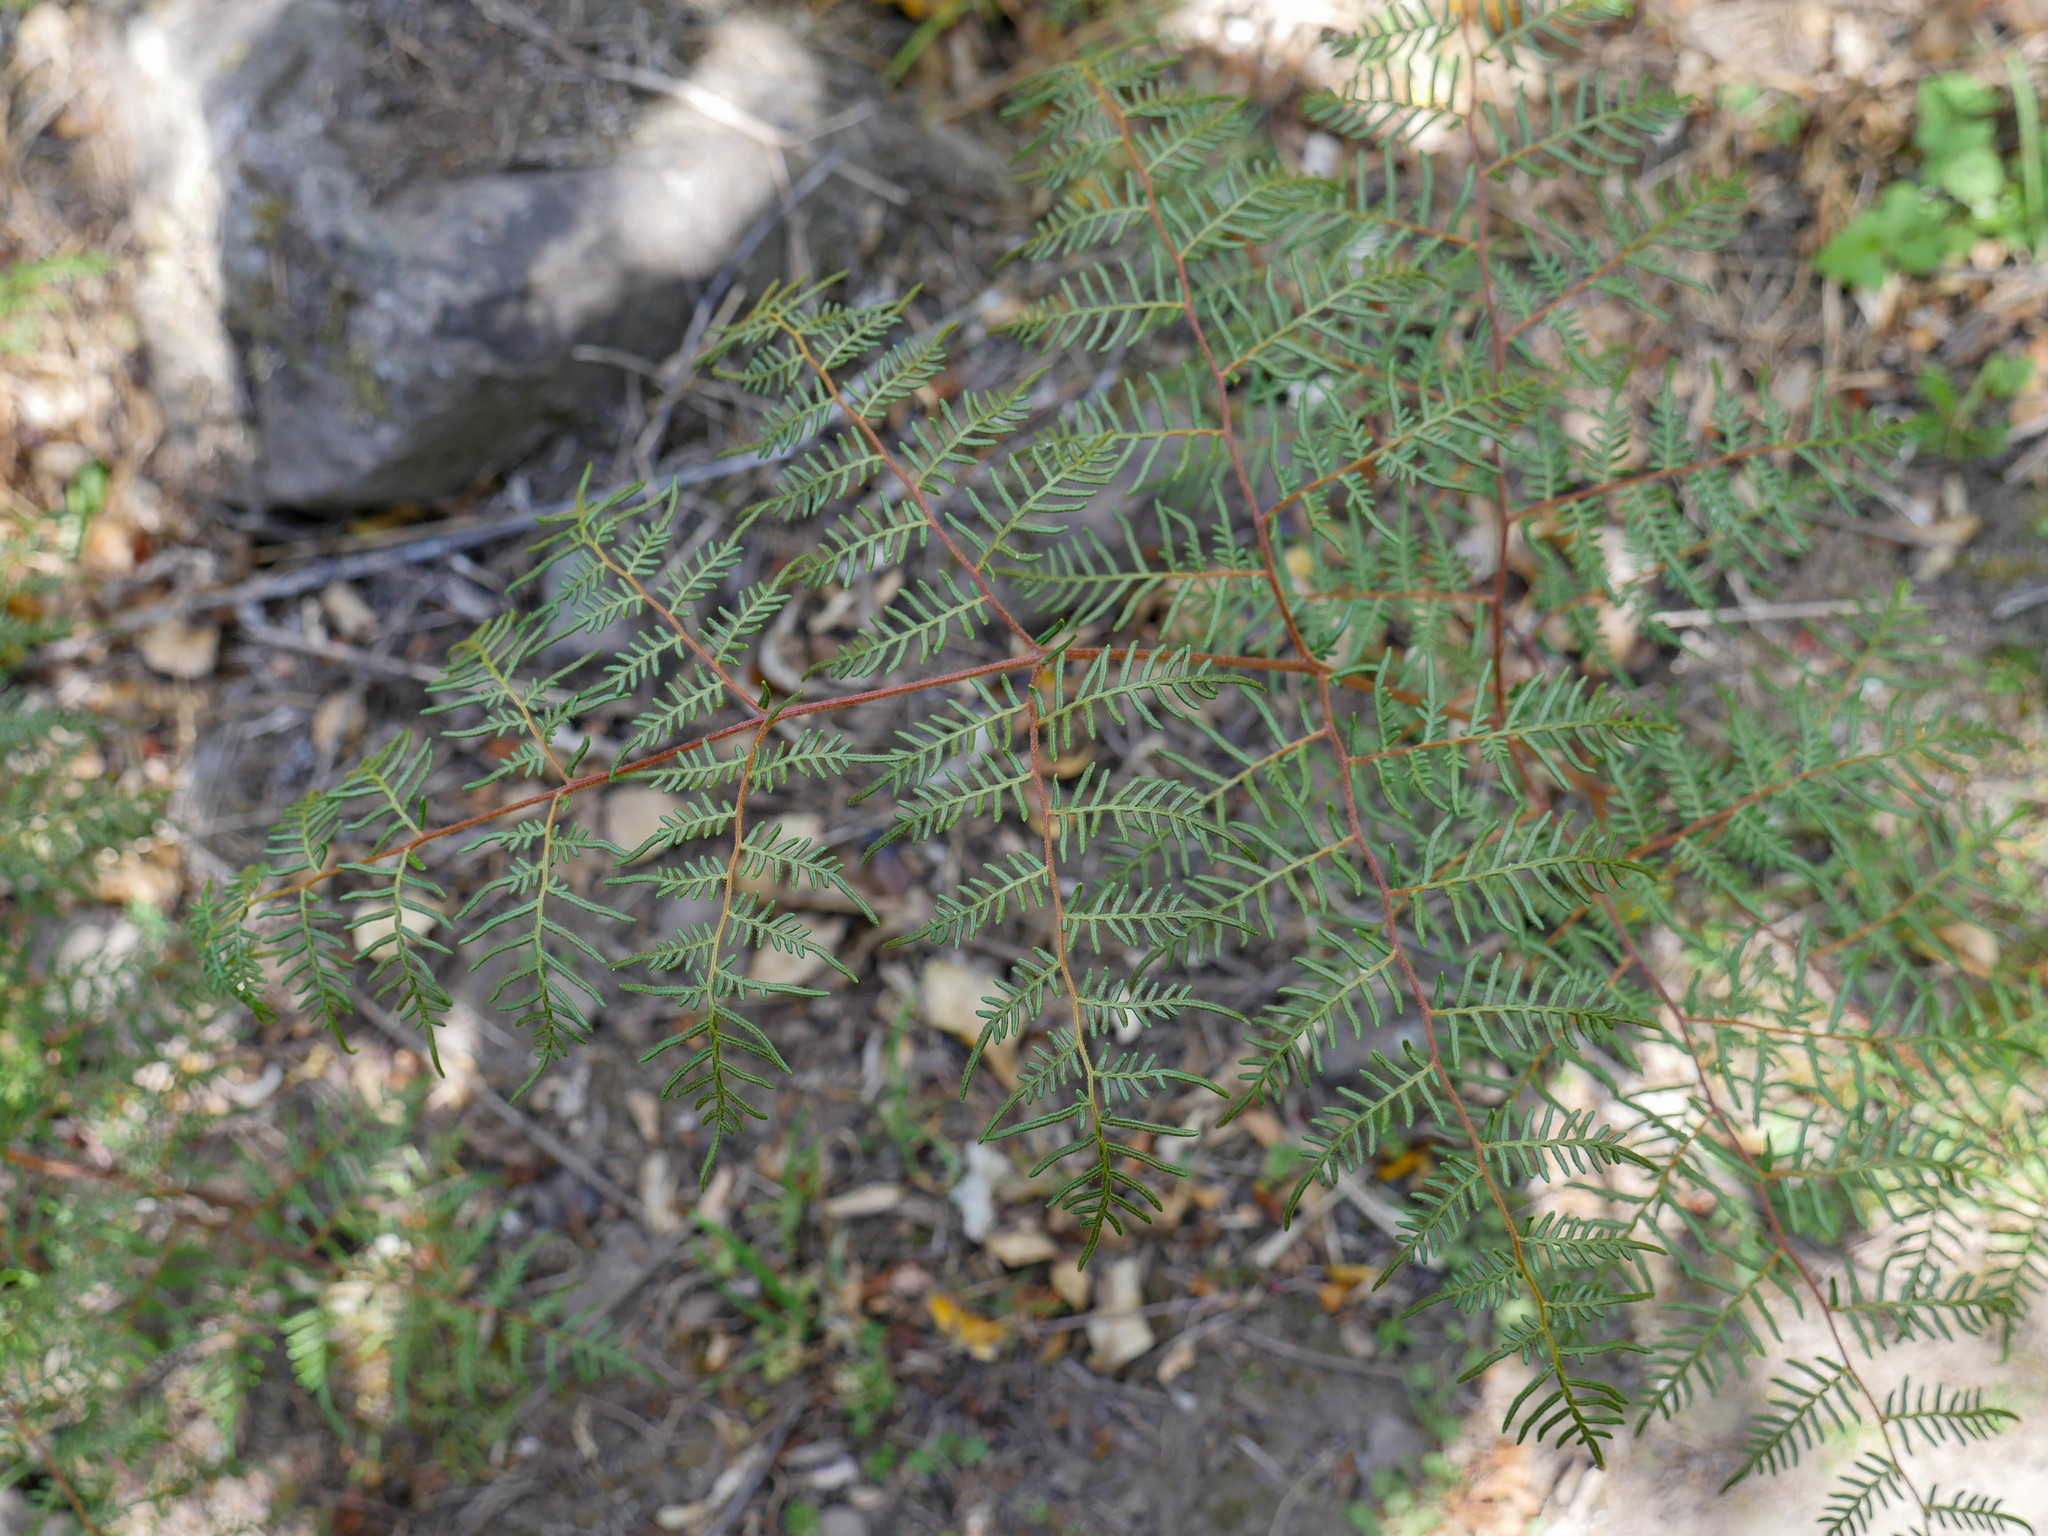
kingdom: Plantae
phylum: Tracheophyta
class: Polypodiopsida
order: Polypodiales
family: Dennstaedtiaceae
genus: Pteridium
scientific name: Pteridium esculentum
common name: Bracken fern
